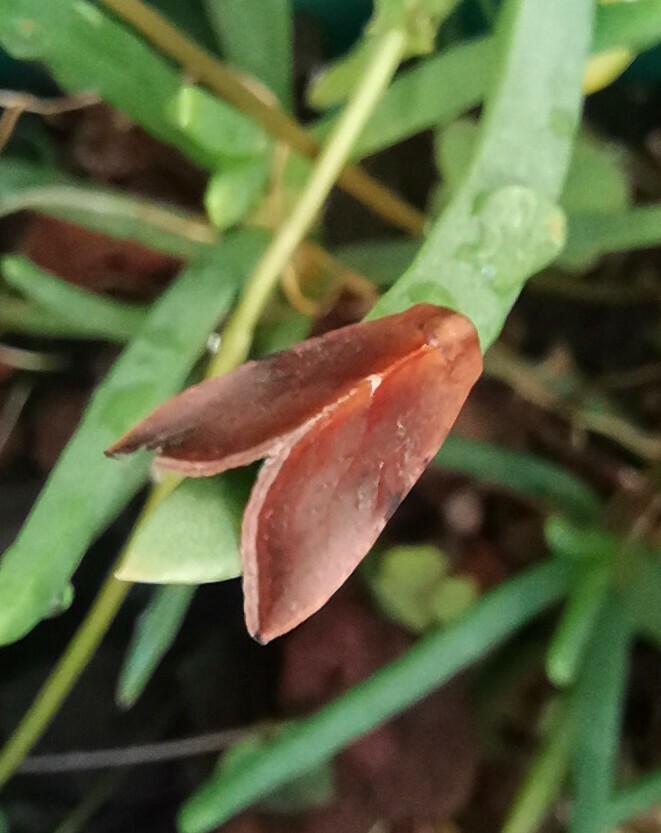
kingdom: Animalia
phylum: Arthropoda
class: Insecta
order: Lepidoptera
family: Noctuidae
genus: Galgula
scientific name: Galgula partita
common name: Wedgeling
